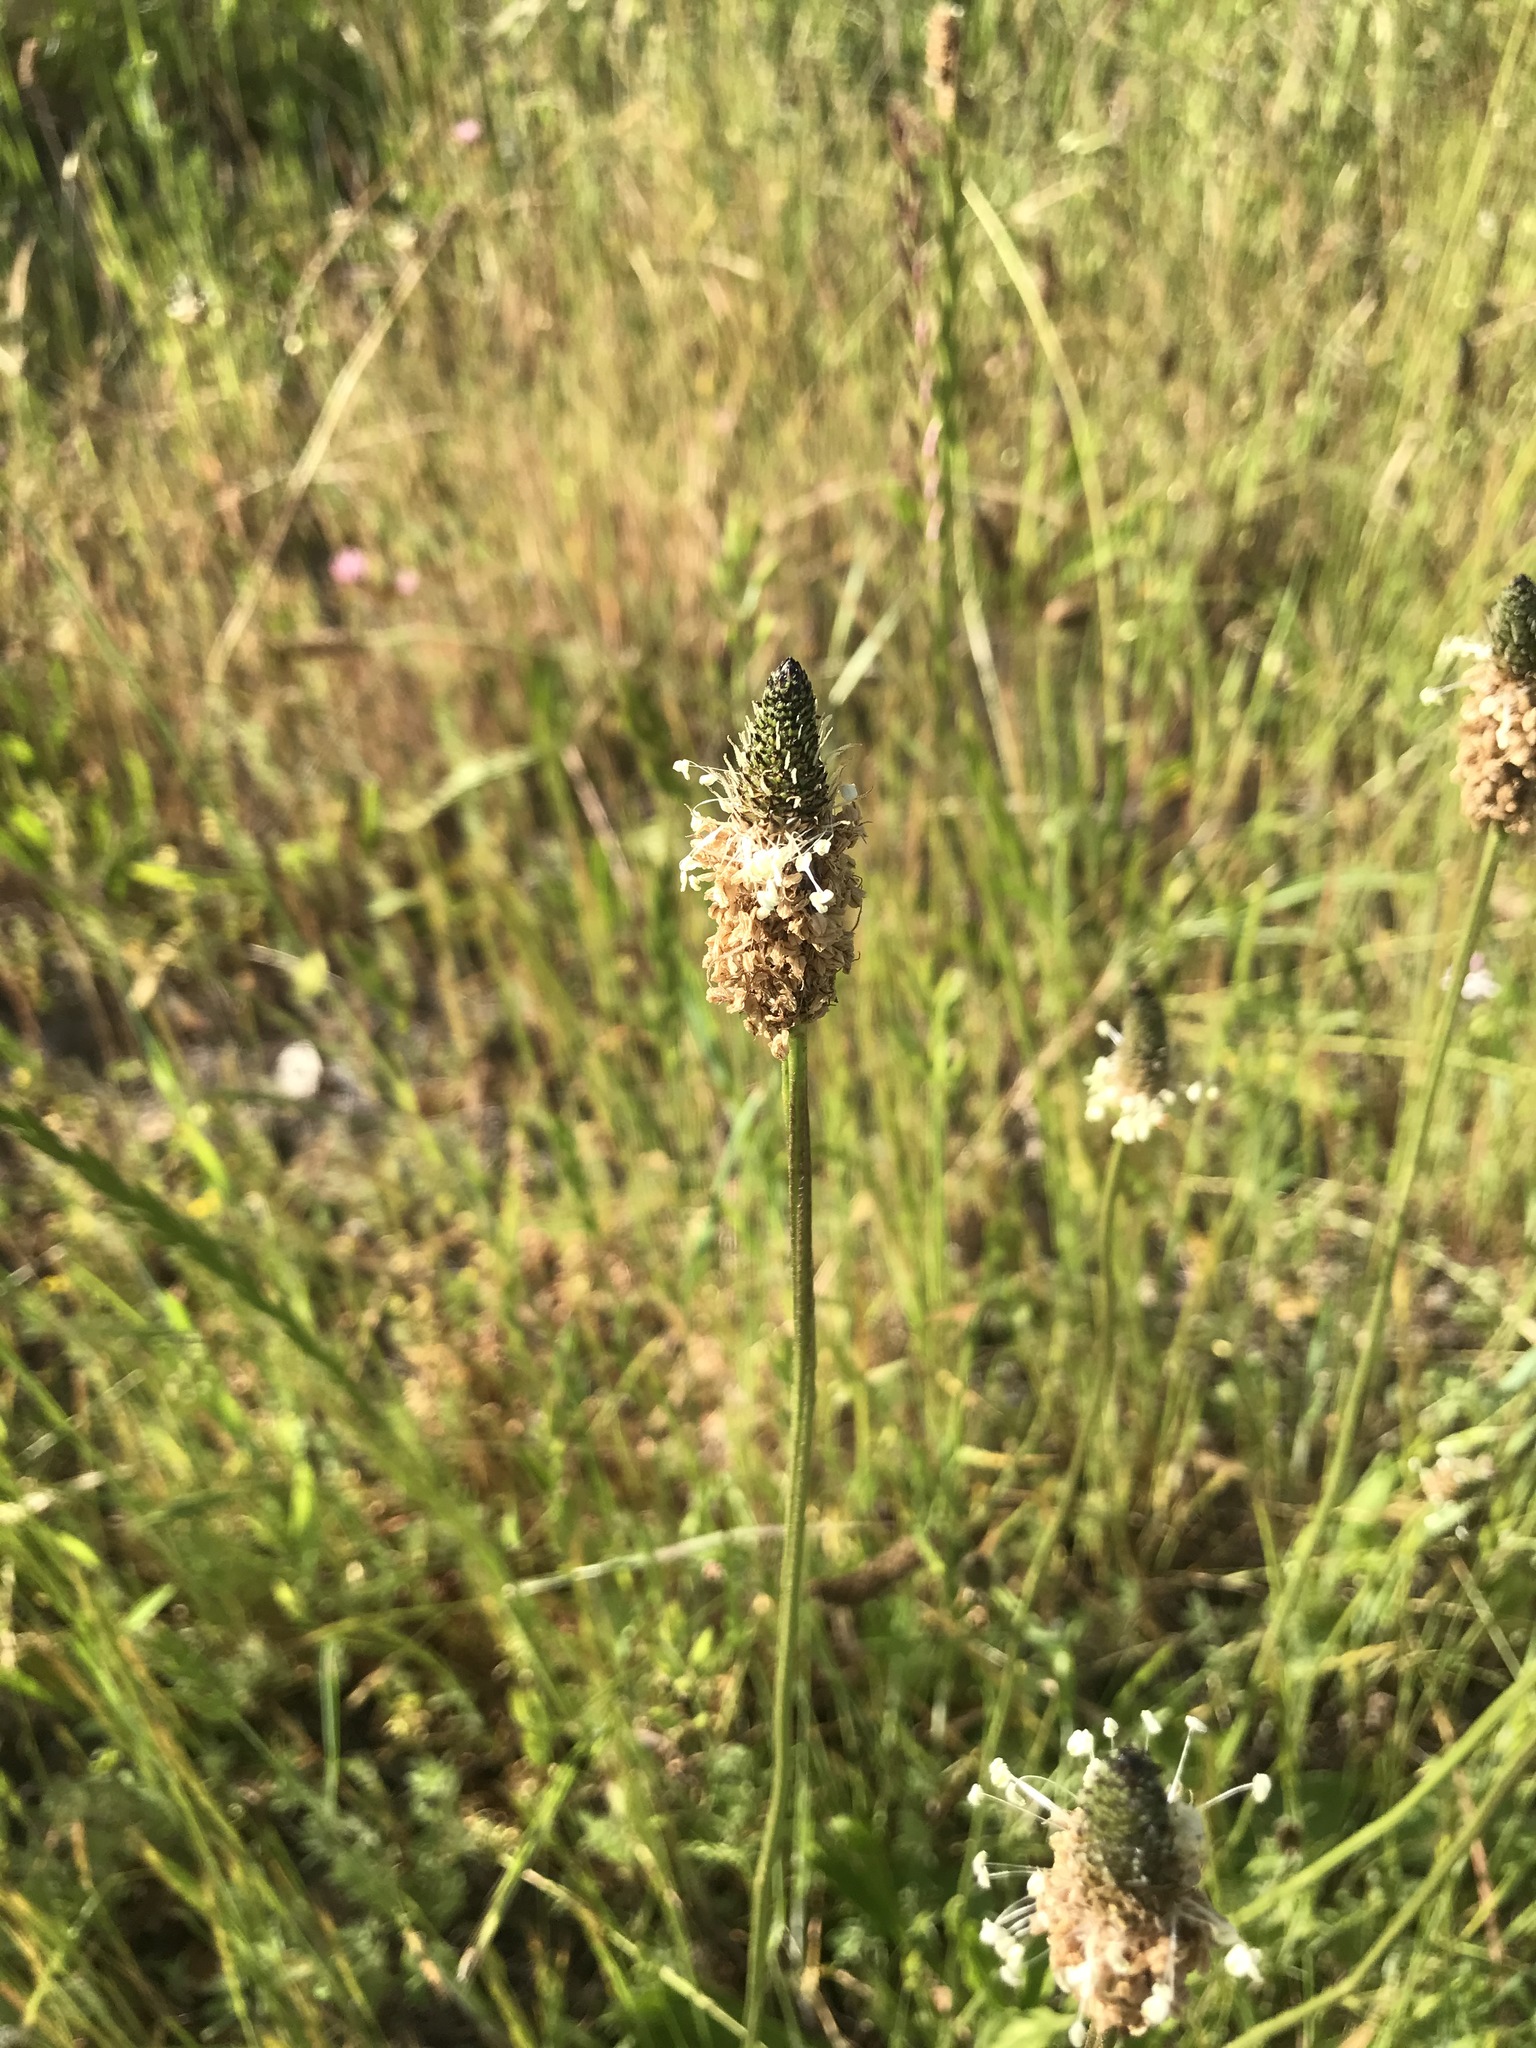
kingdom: Plantae
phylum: Tracheophyta
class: Magnoliopsida
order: Lamiales
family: Plantaginaceae
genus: Plantago
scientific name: Plantago lanceolata
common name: Ribwort plantain
